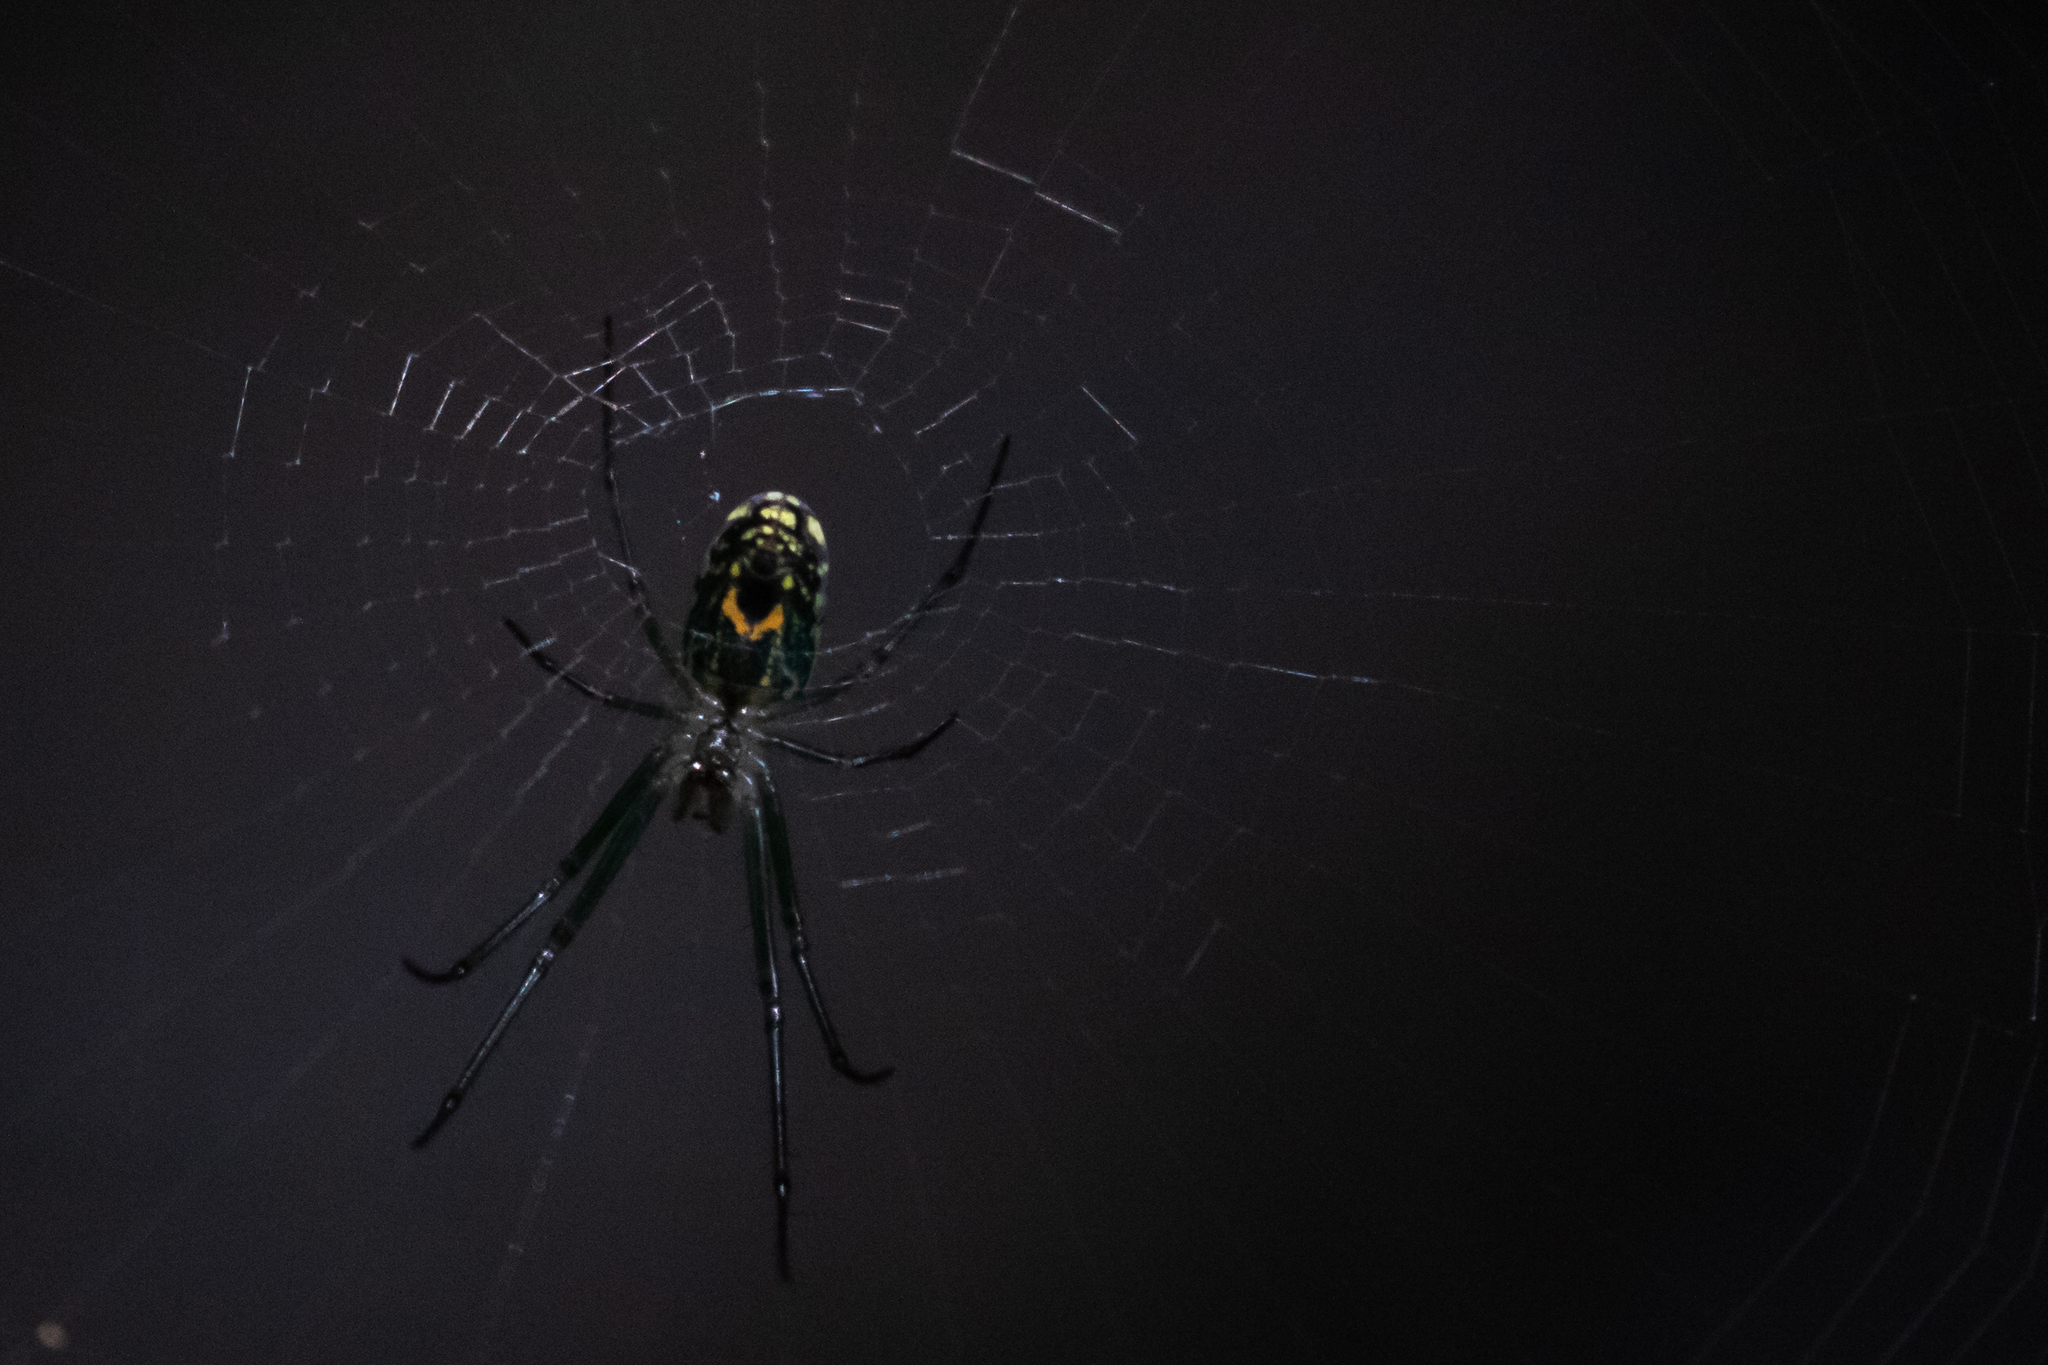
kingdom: Animalia
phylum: Arthropoda
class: Arachnida
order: Araneae
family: Tetragnathidae
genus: Leucauge
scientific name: Leucauge venusta
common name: Longjawed orb weavers
